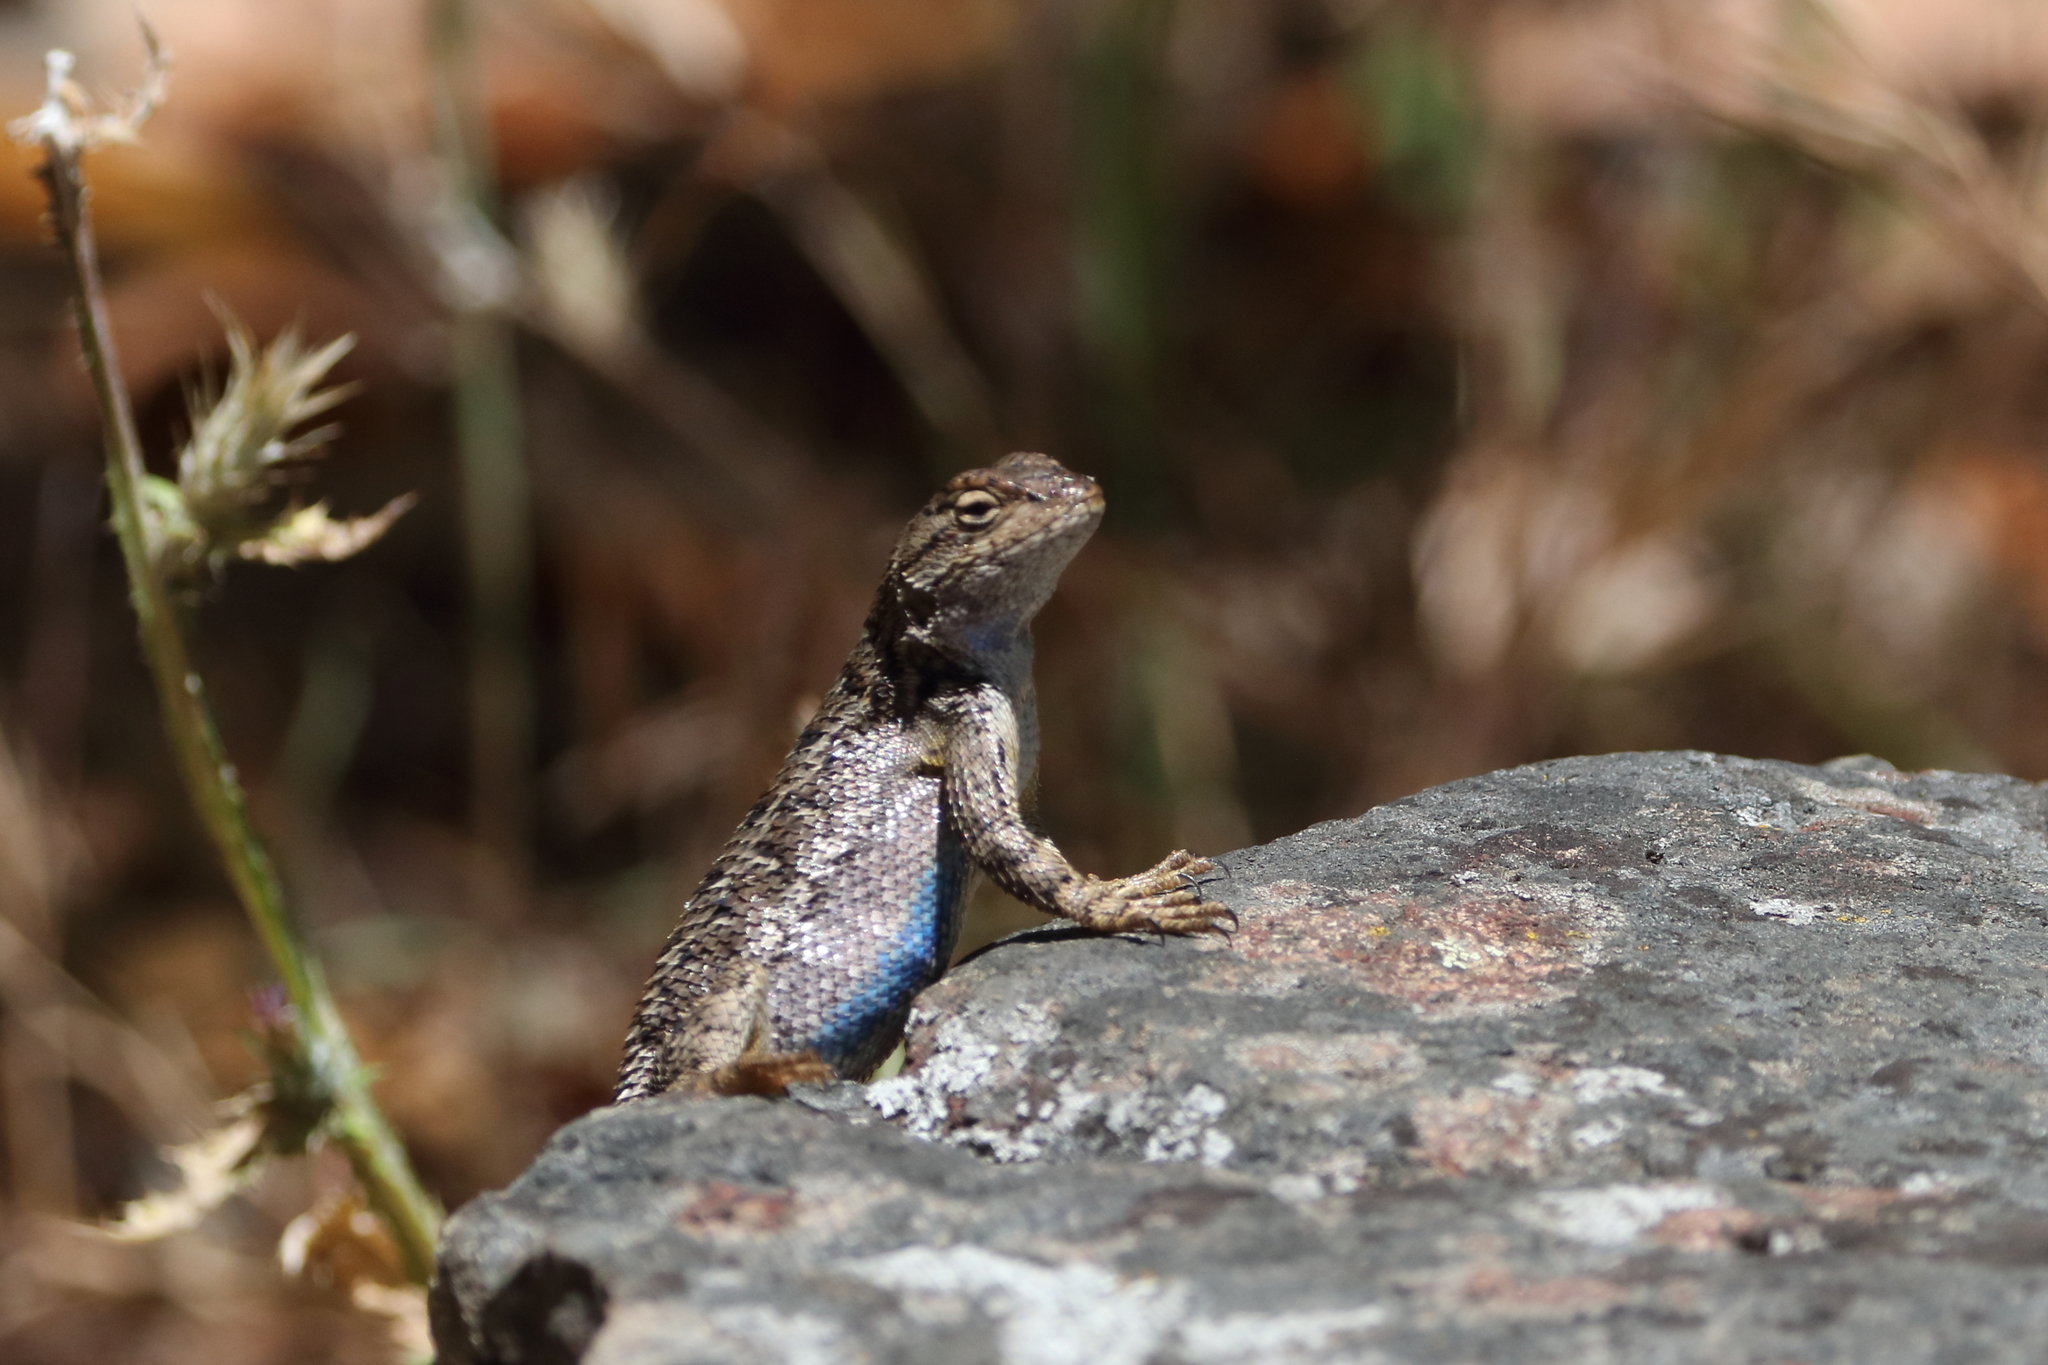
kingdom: Animalia
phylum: Chordata
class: Squamata
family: Phrynosomatidae
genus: Sceloporus
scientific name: Sceloporus occidentalis
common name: Western fence lizard
